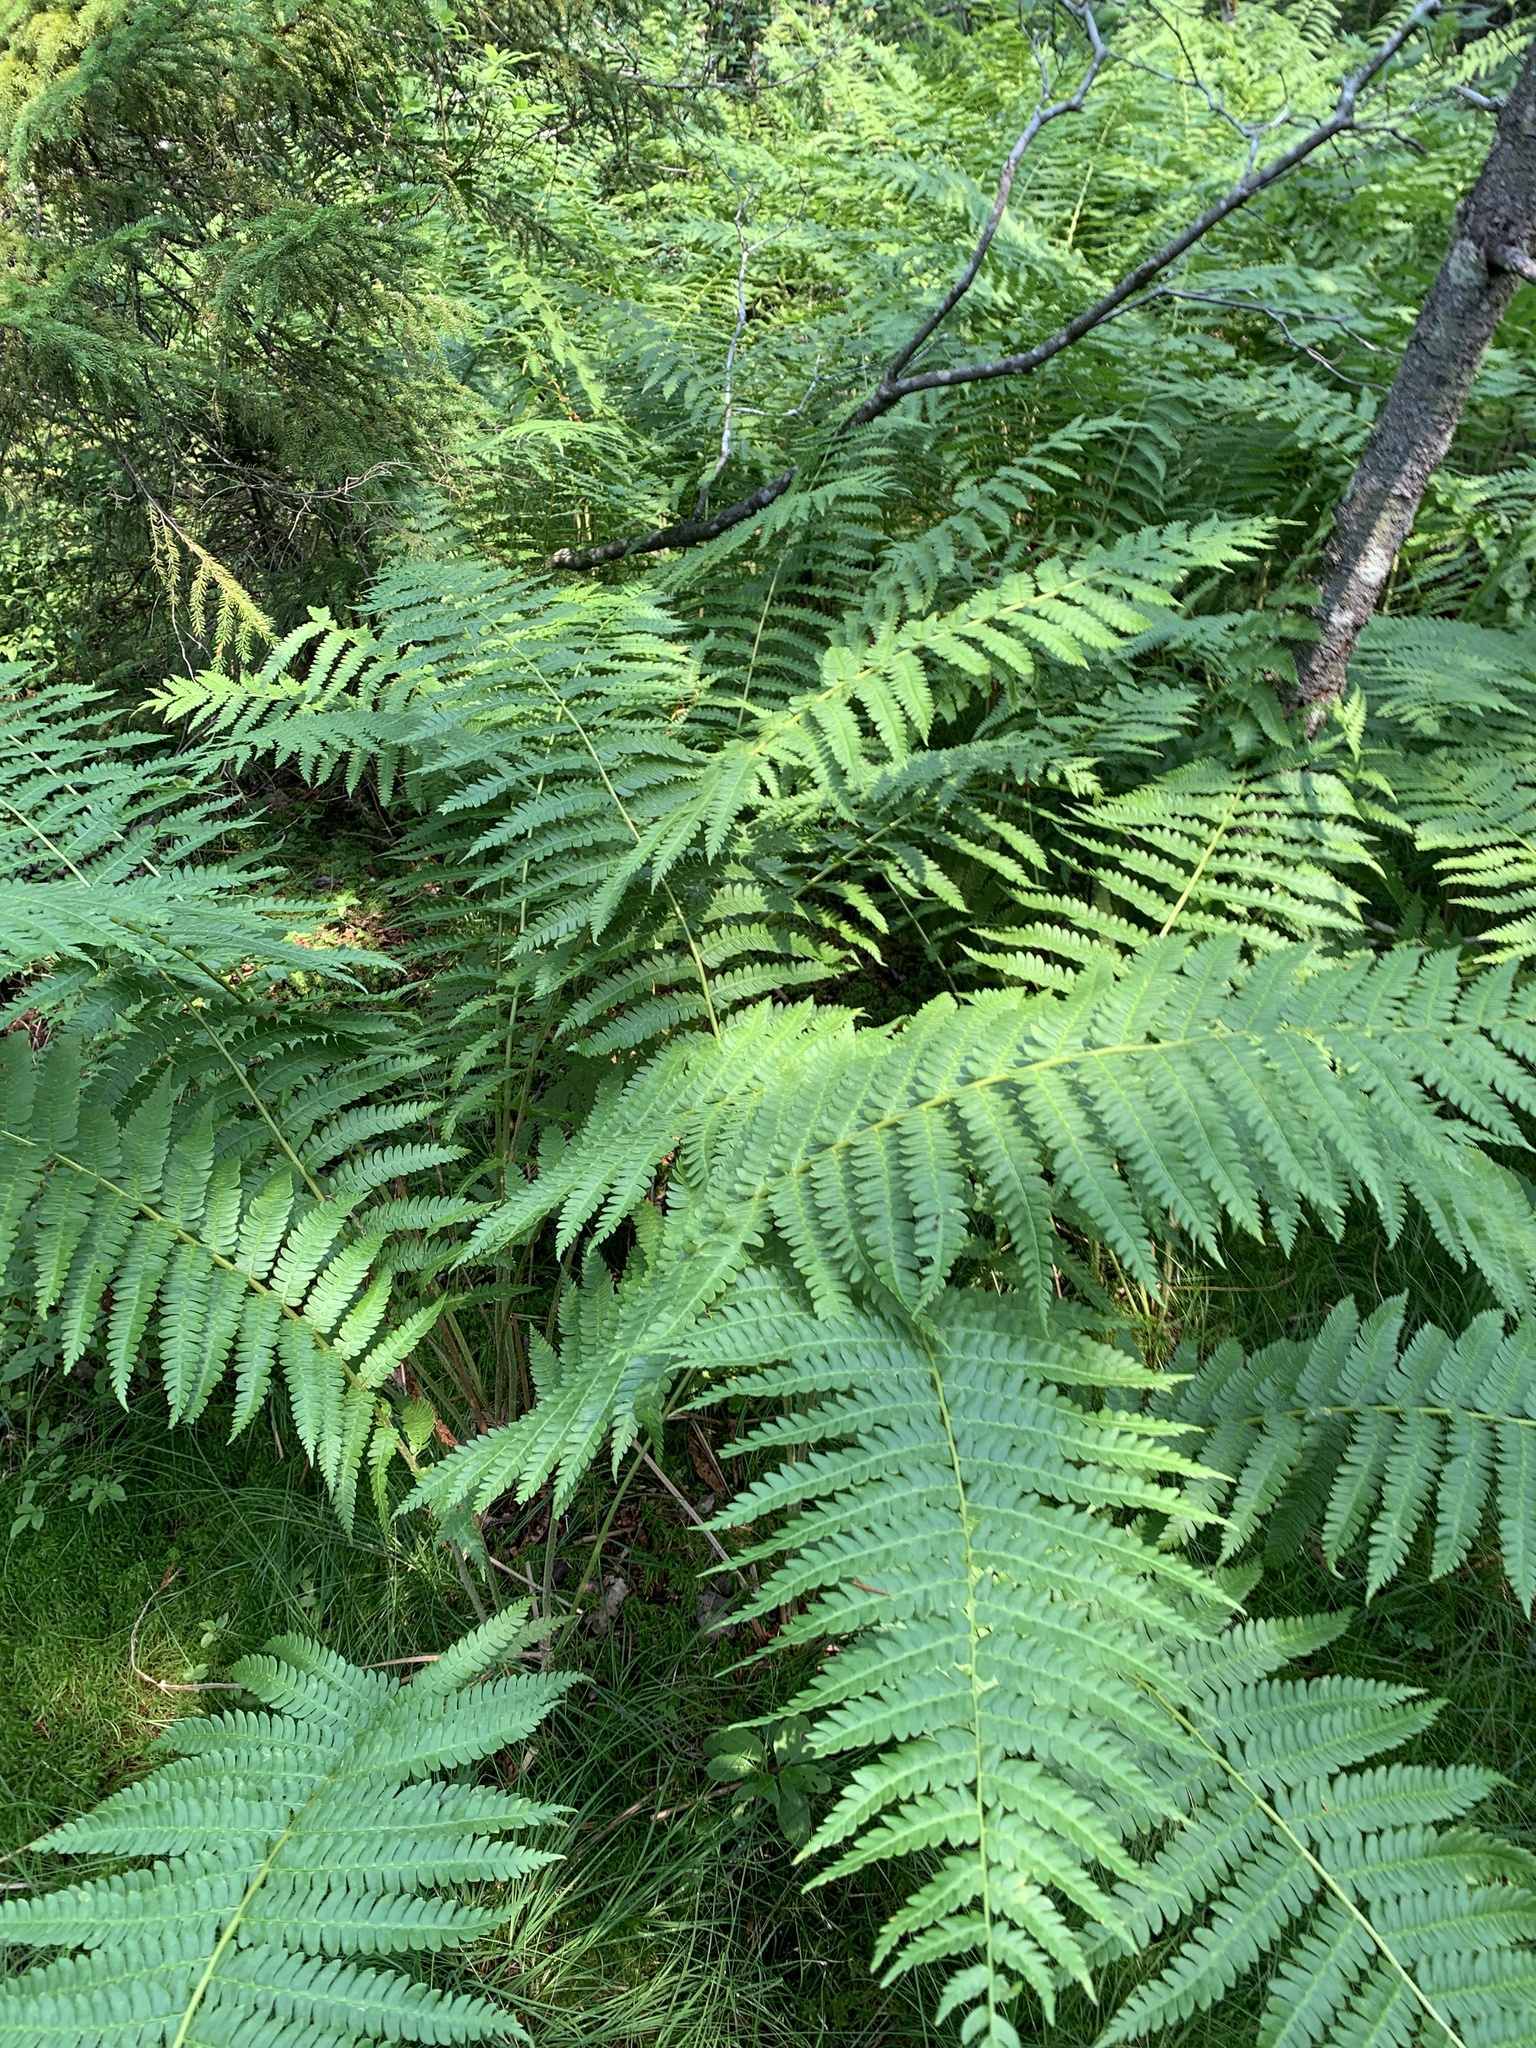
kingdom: Plantae
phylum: Tracheophyta
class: Polypodiopsida
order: Osmundales
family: Osmundaceae
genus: Osmundastrum
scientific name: Osmundastrum cinnamomeum
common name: Cinnamon fern
